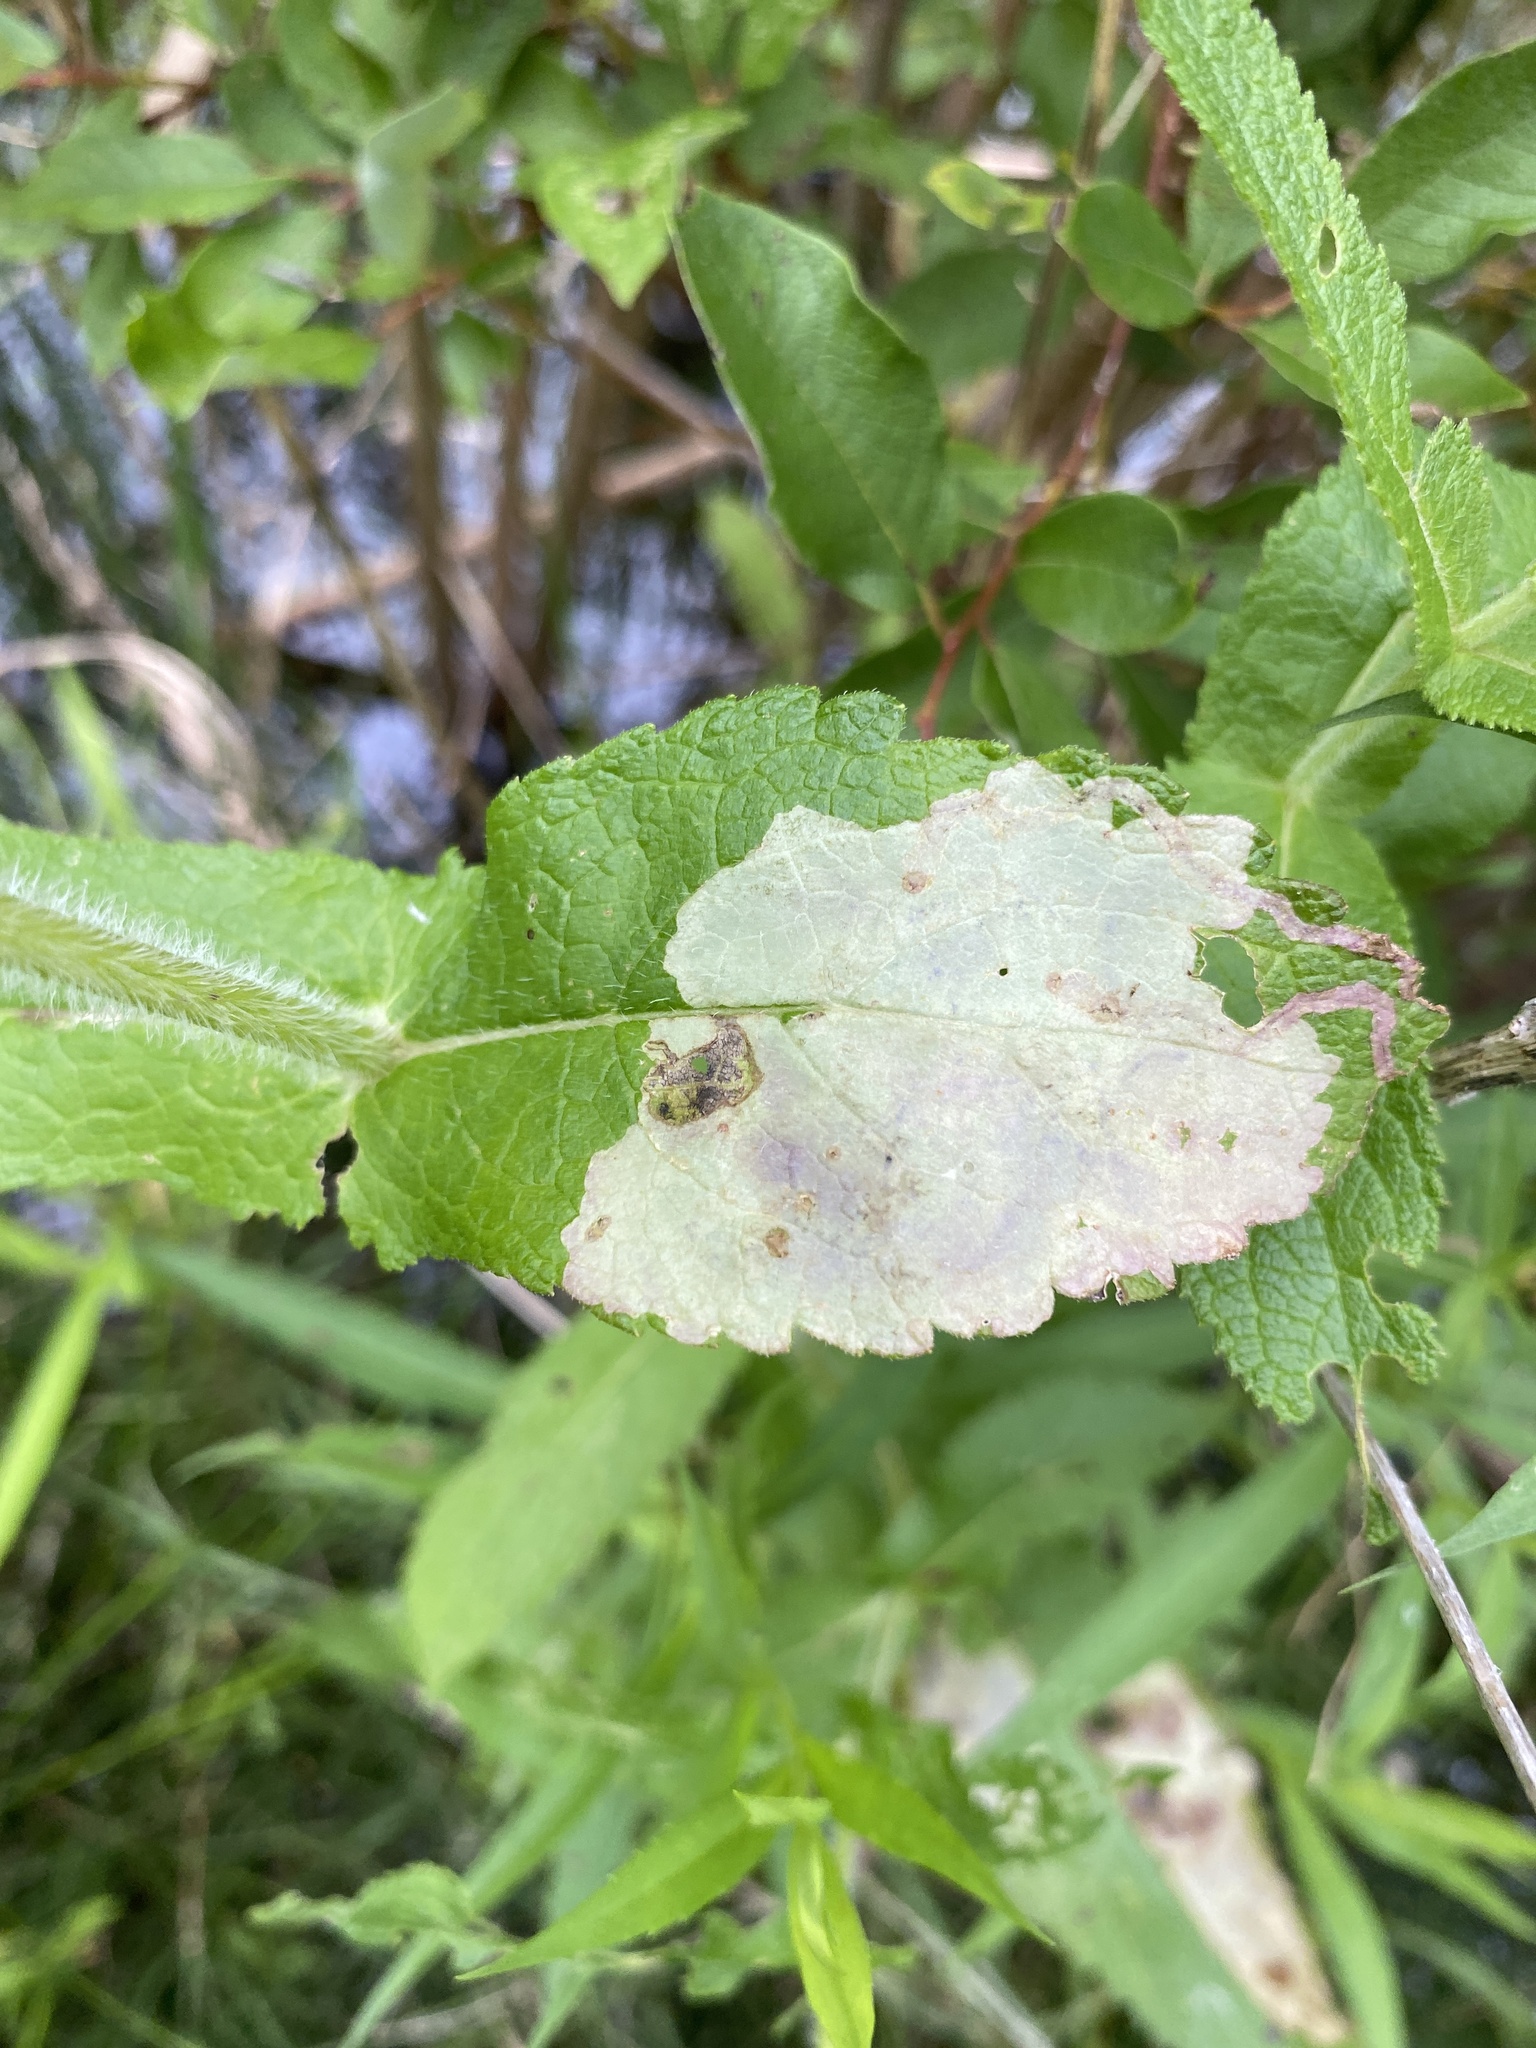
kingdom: Animalia
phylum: Arthropoda
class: Insecta
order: Diptera
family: Agromyzidae
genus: Calycomyza
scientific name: Calycomyza flavinotum
